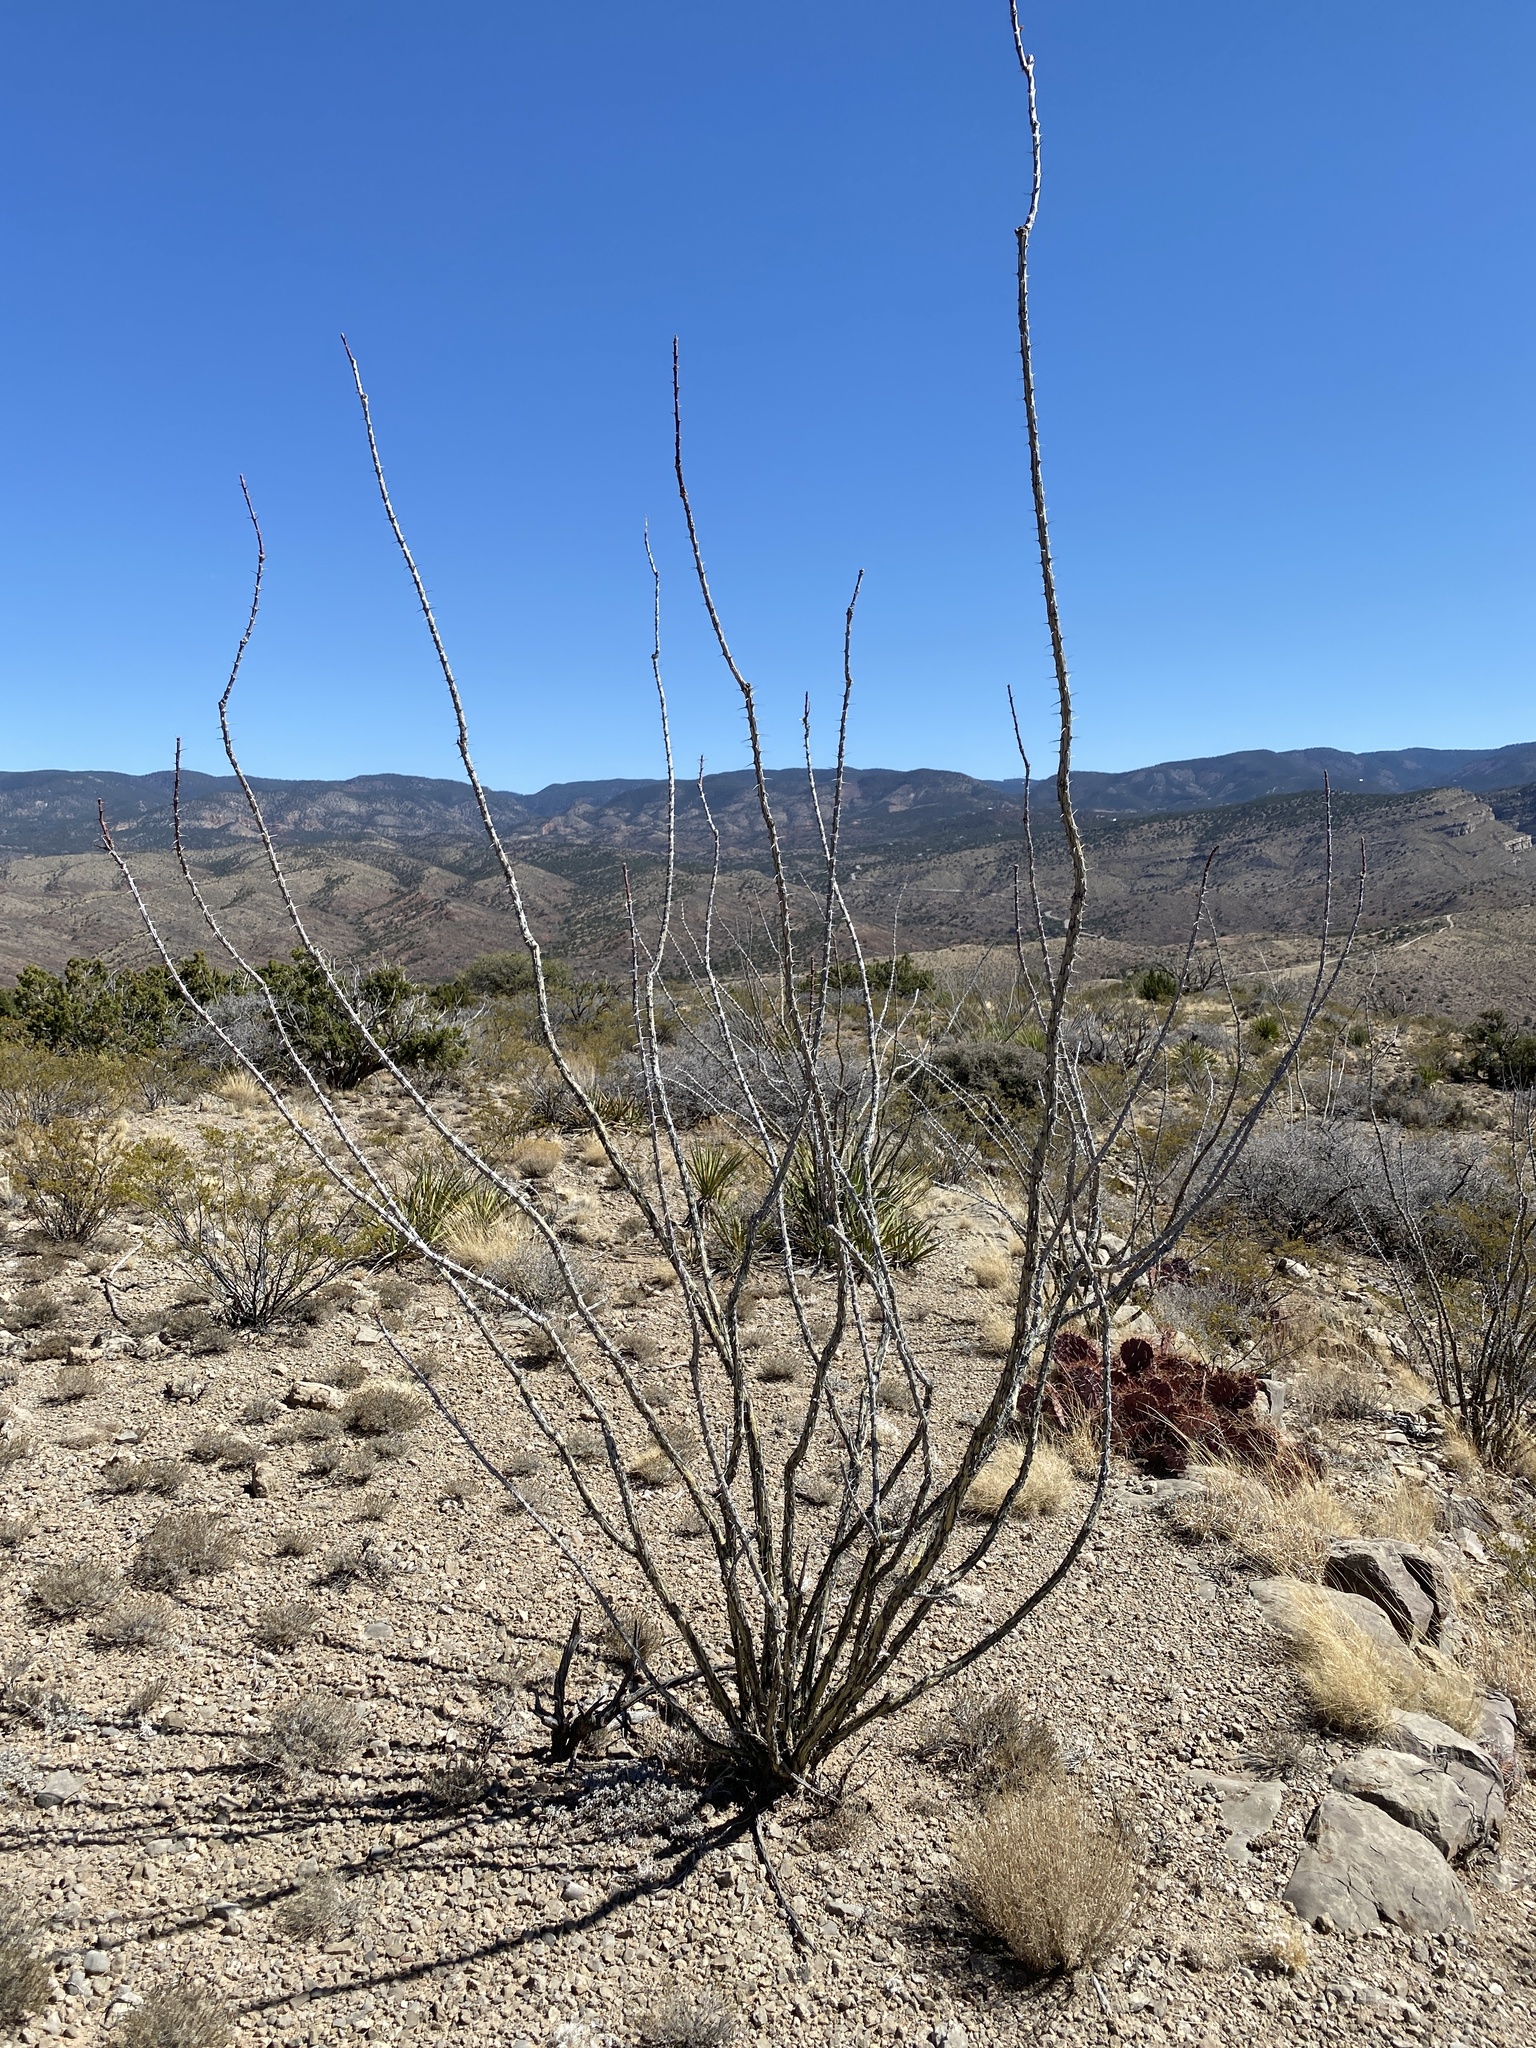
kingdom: Plantae
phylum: Tracheophyta
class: Magnoliopsida
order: Ericales
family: Fouquieriaceae
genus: Fouquieria
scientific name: Fouquieria splendens
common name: Vine-cactus
